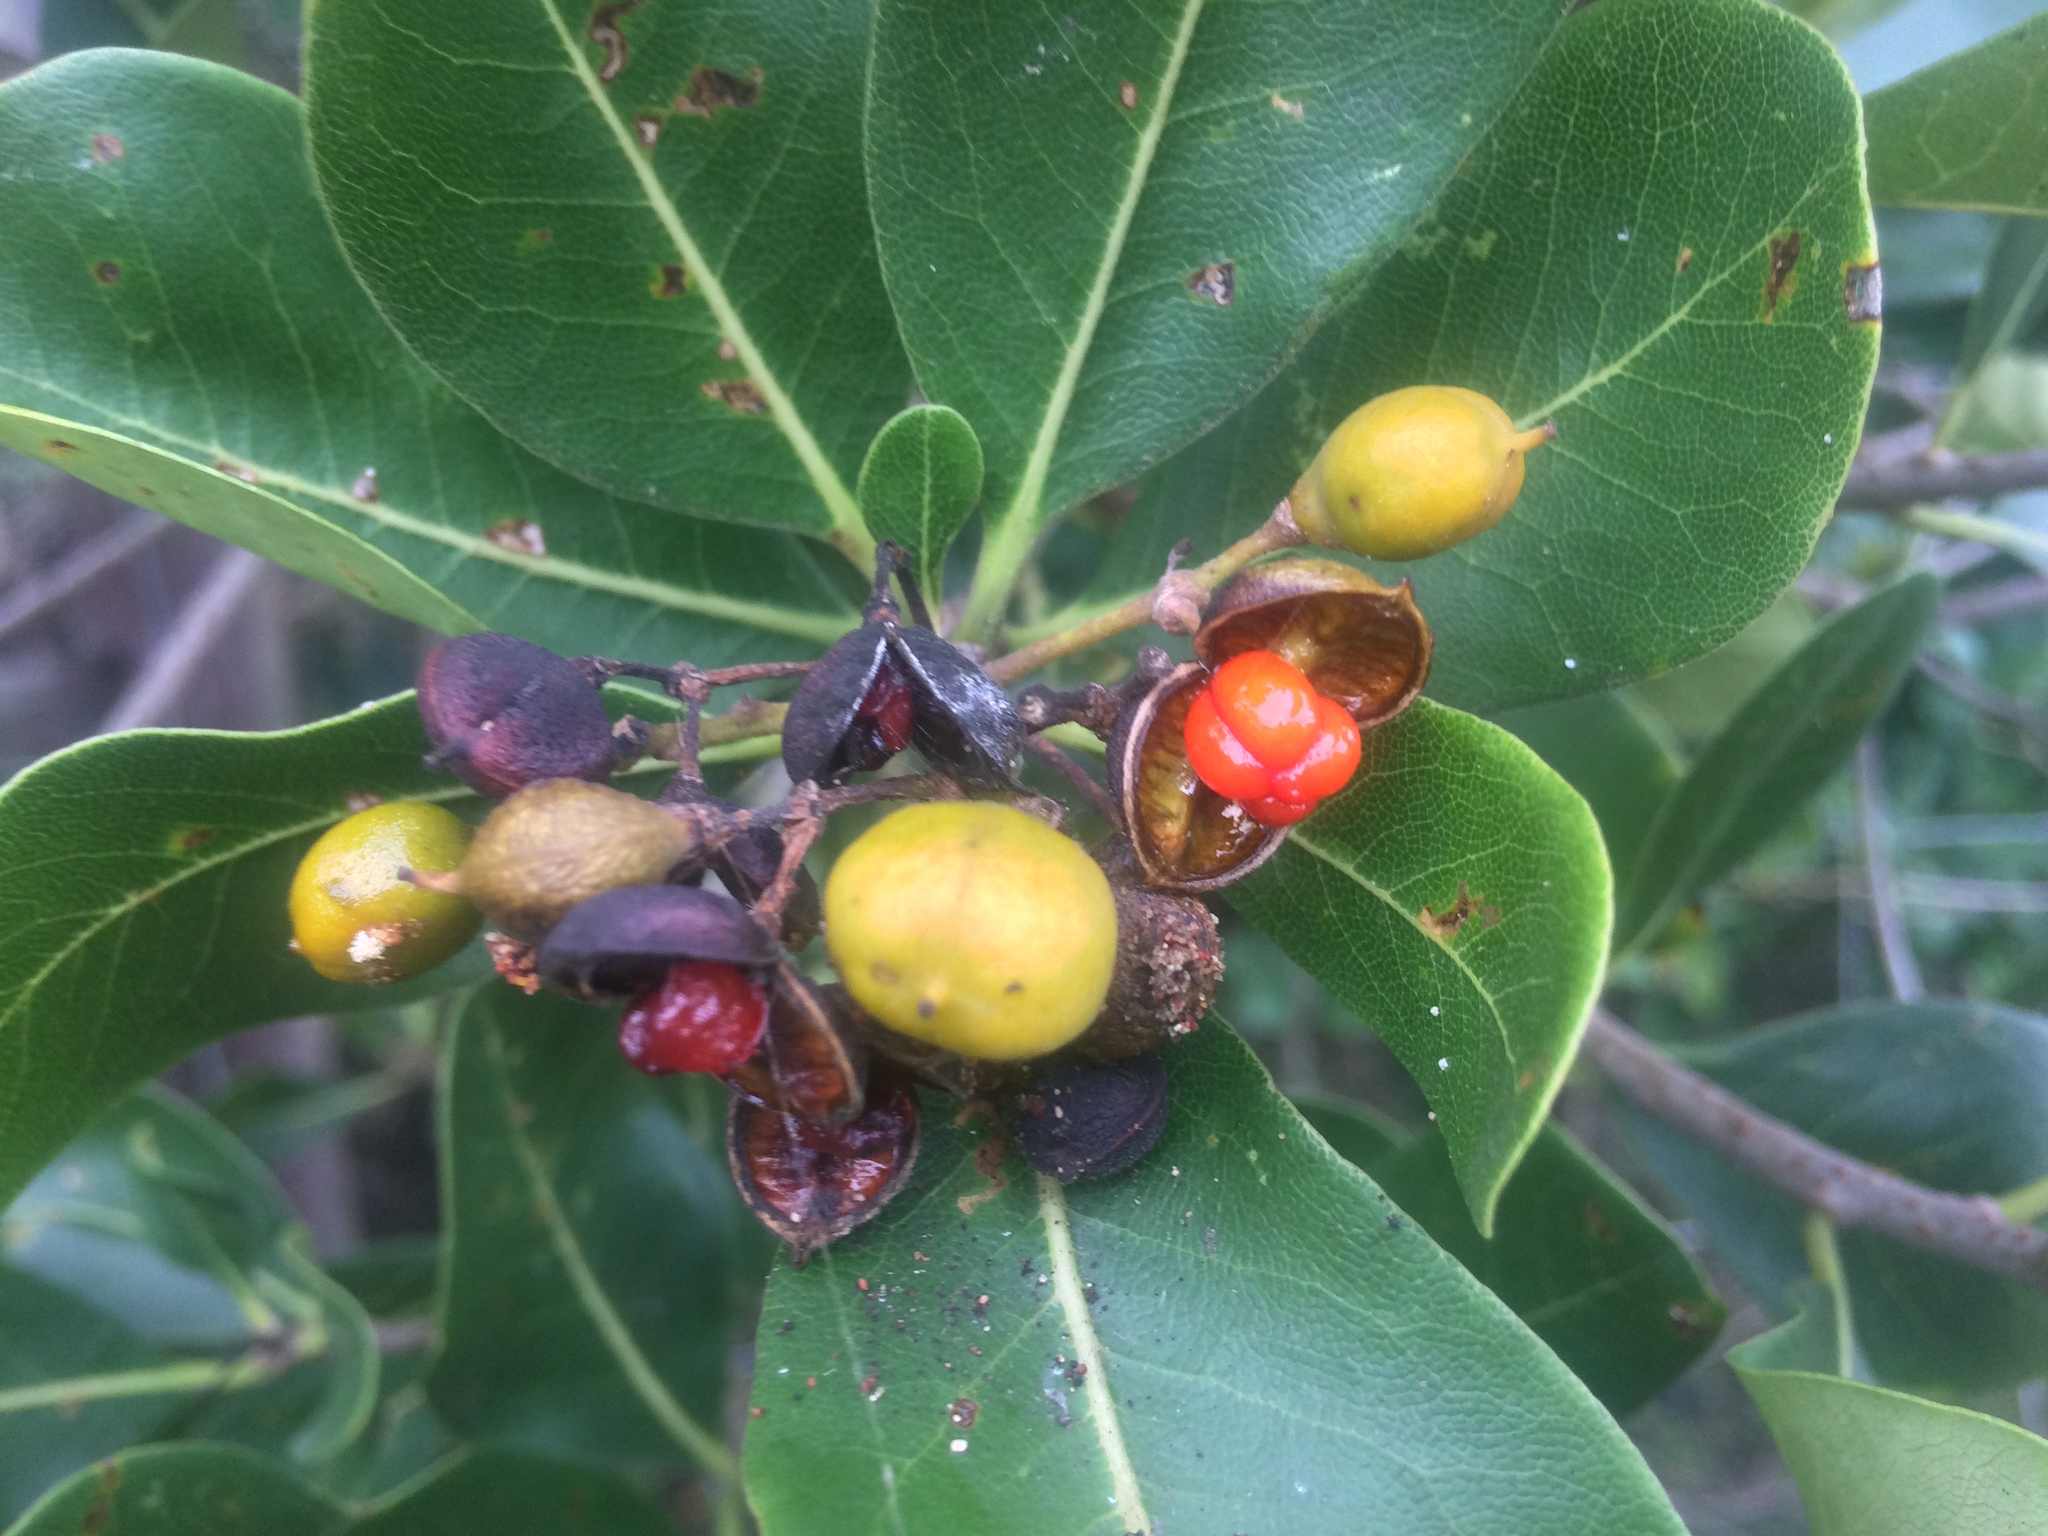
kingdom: Plantae
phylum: Tracheophyta
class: Magnoliopsida
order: Apiales
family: Pittosporaceae
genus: Pittosporum
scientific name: Pittosporum viridiflorum
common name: Cape cheesewood
